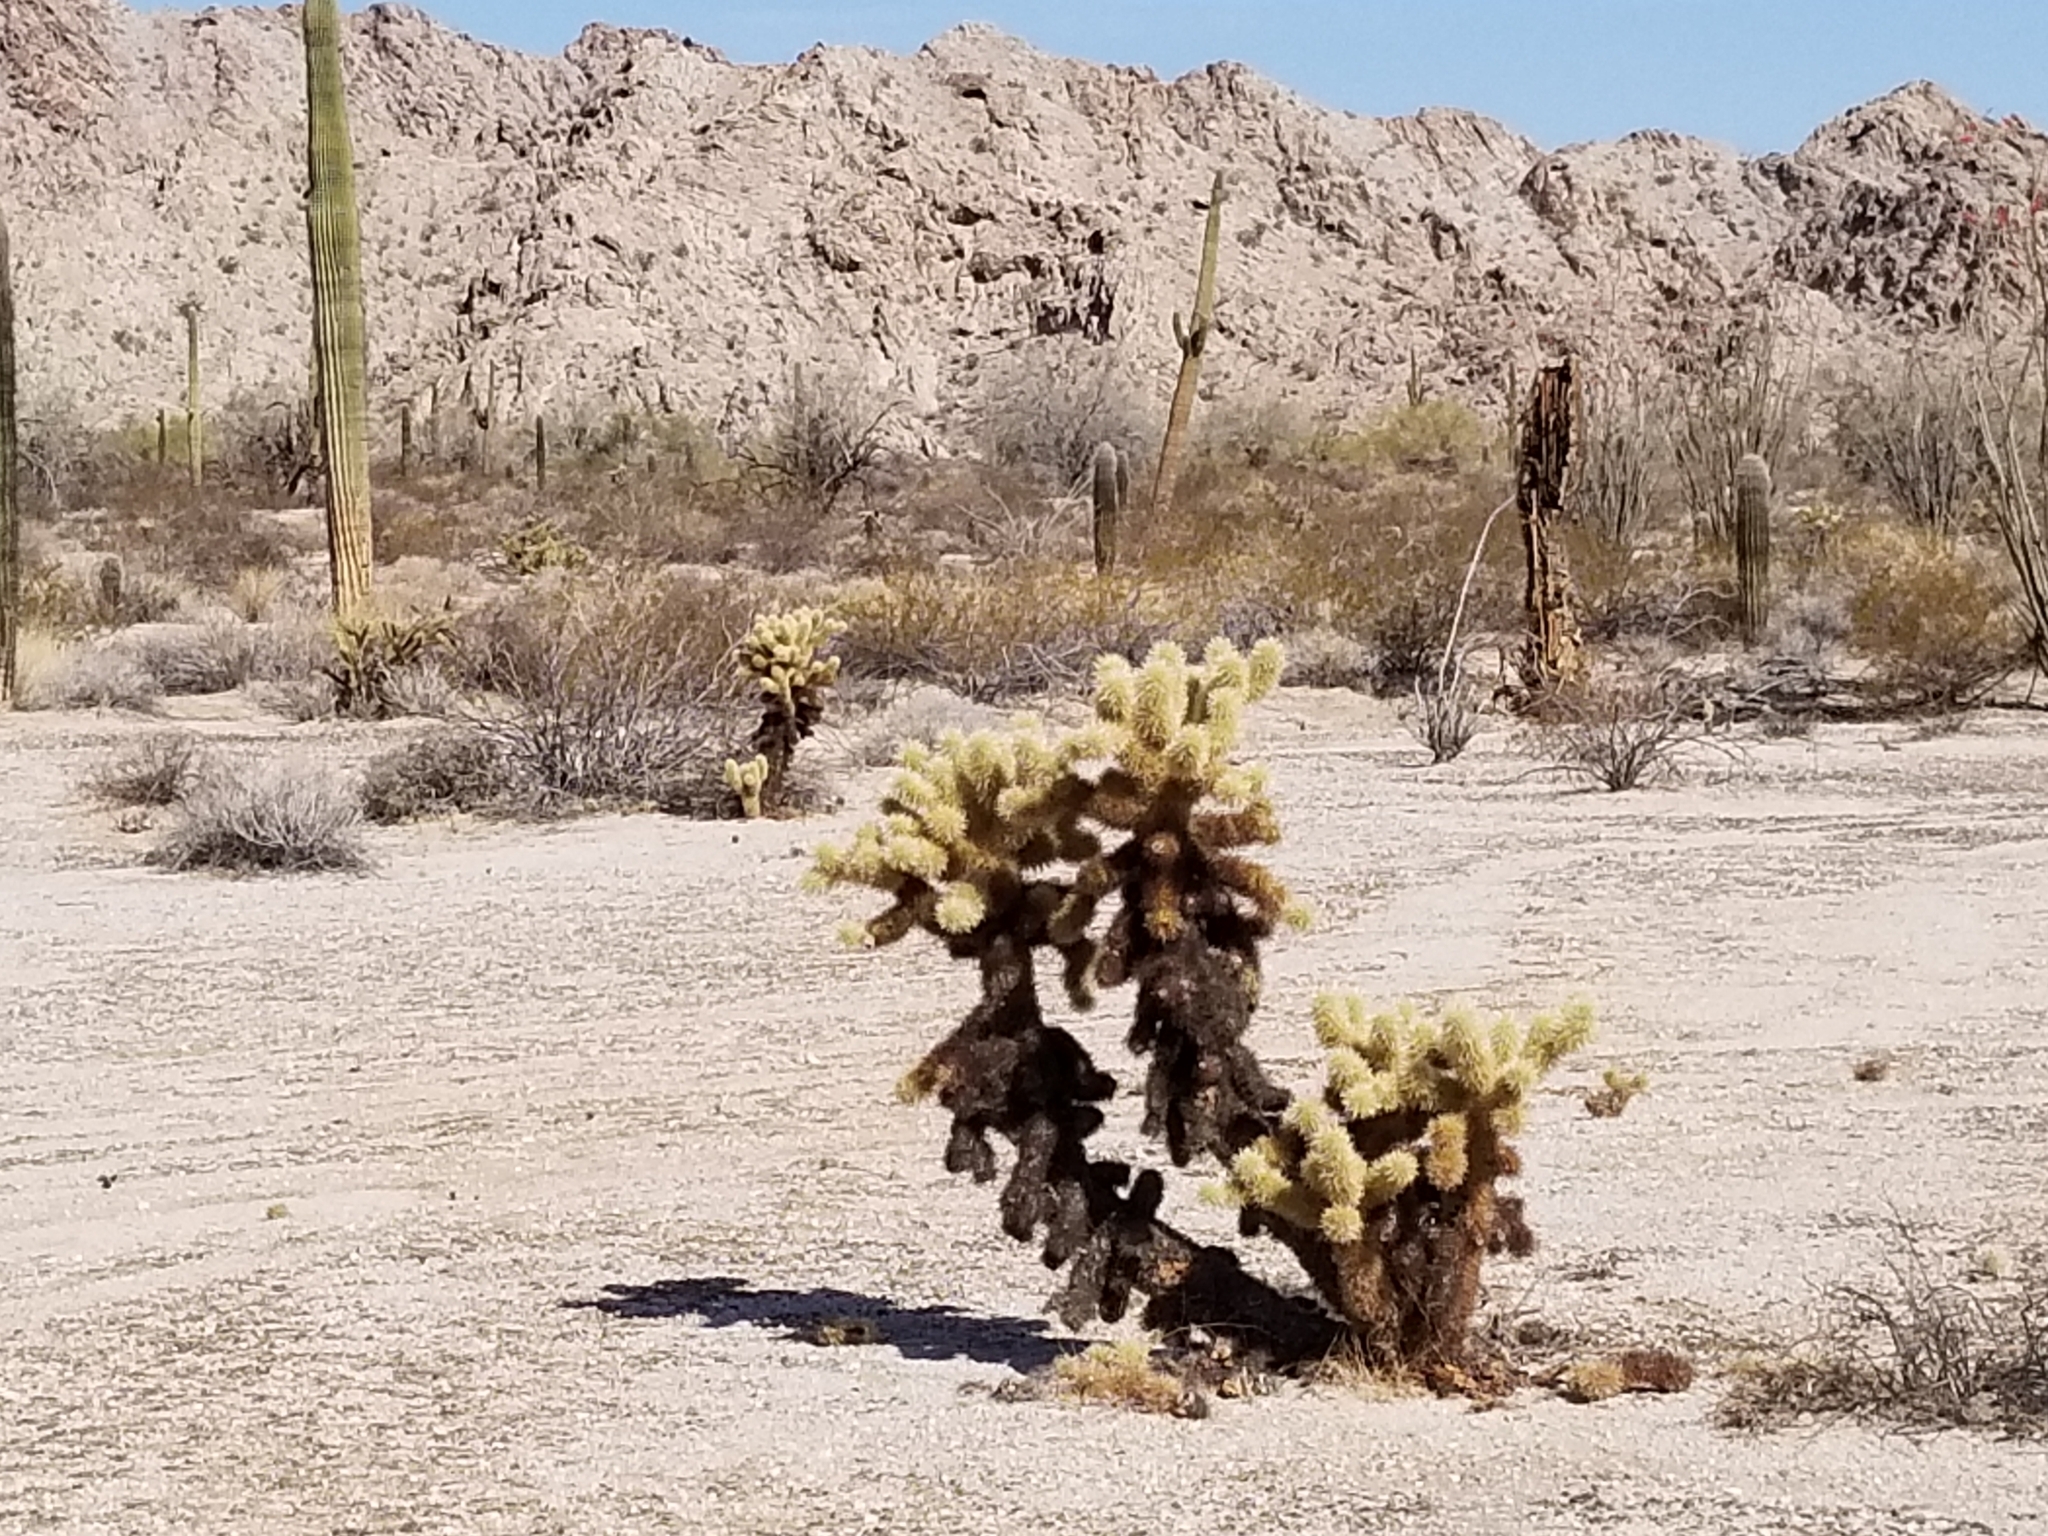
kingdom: Plantae
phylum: Tracheophyta
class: Magnoliopsida
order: Caryophyllales
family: Cactaceae
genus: Cylindropuntia
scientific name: Cylindropuntia fosbergii
